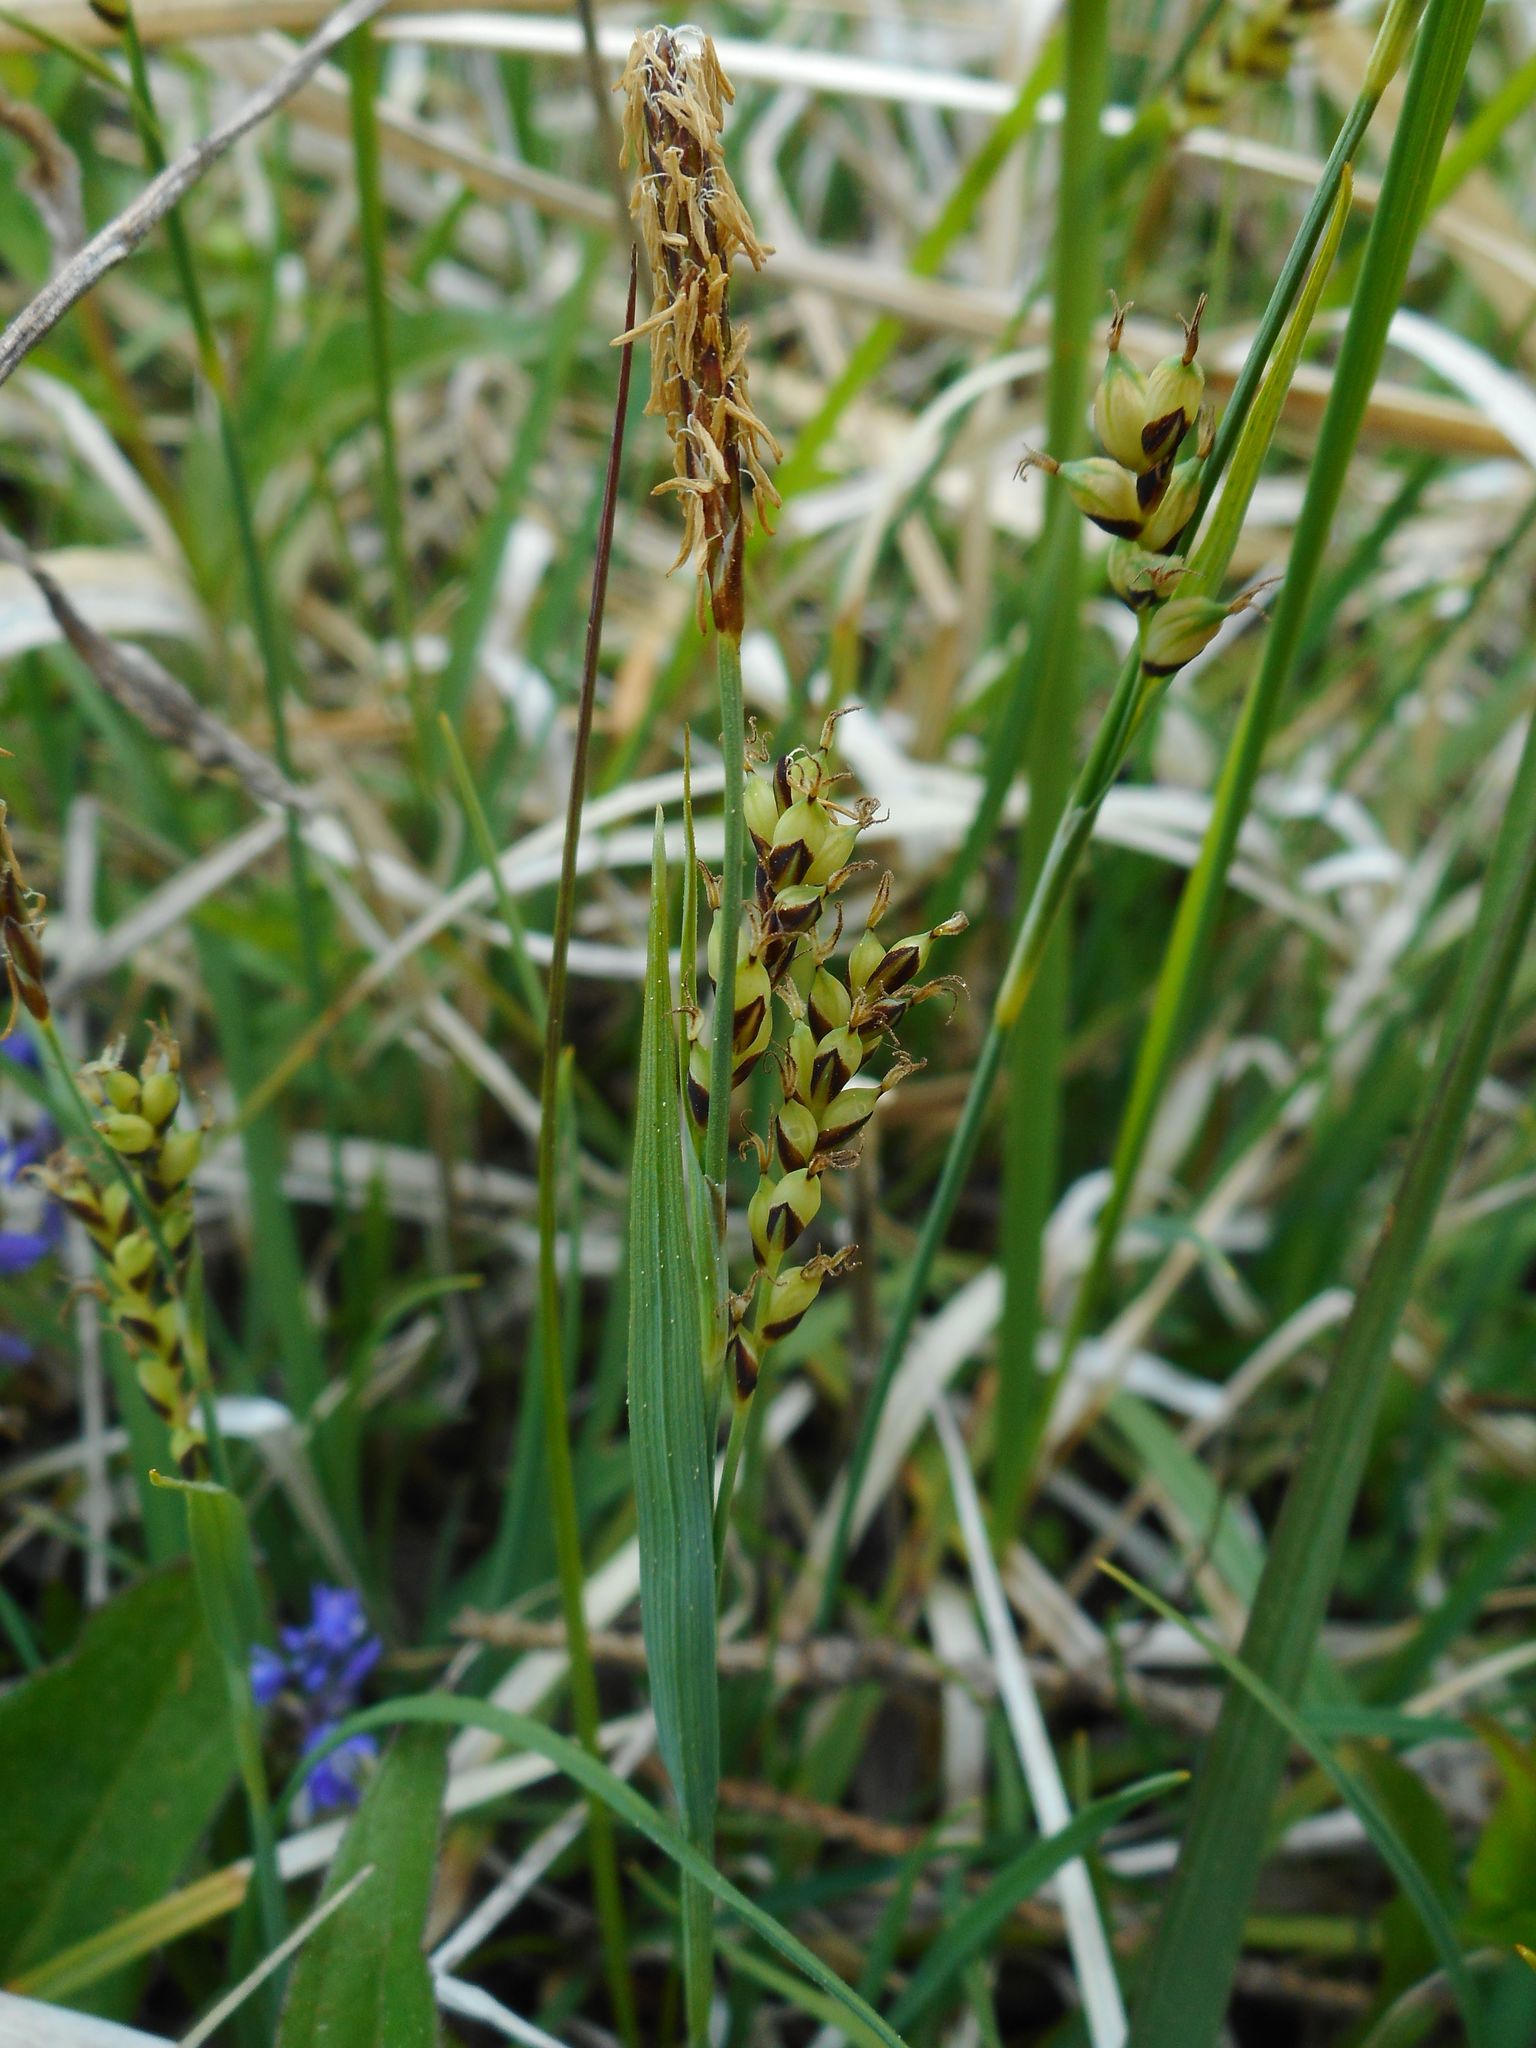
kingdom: Plantae
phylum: Tracheophyta
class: Liliopsida
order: Poales
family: Cyperaceae
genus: Carex
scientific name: Carex panicea
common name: Carnation sedge
